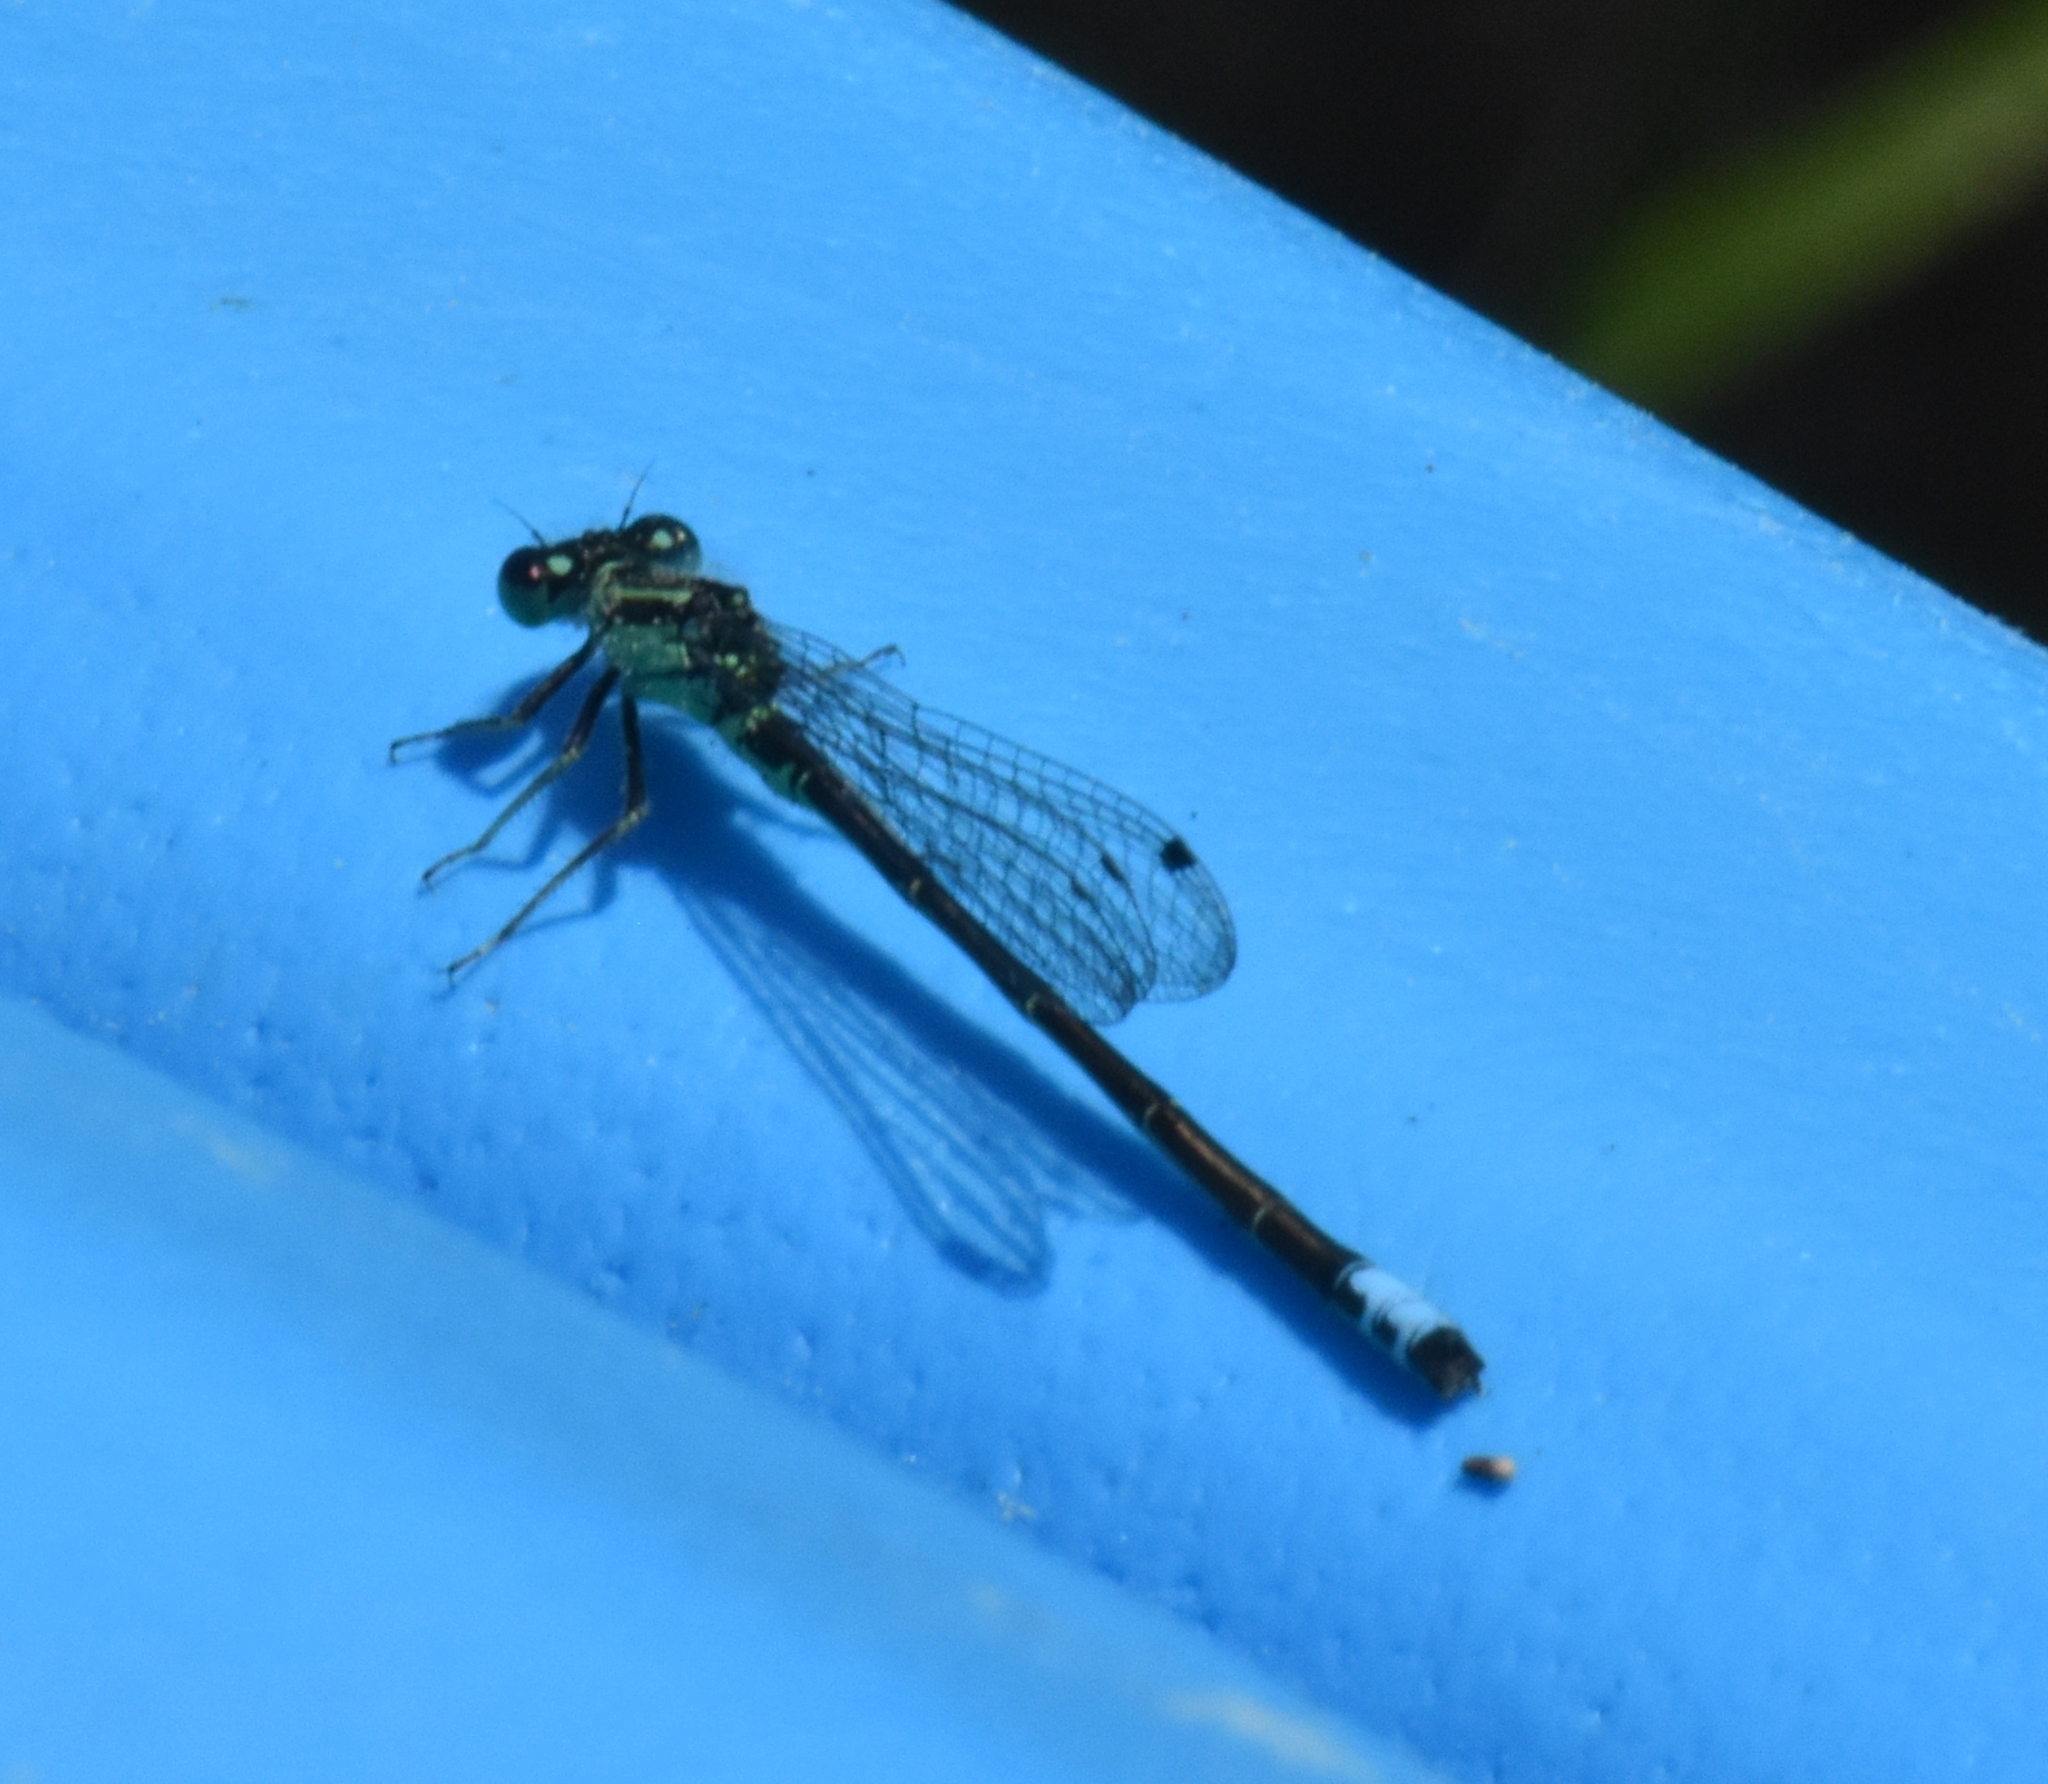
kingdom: Animalia
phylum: Arthropoda
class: Insecta
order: Odonata
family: Coenagrionidae
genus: Ischnura
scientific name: Ischnura verticalis
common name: Eastern forktail
